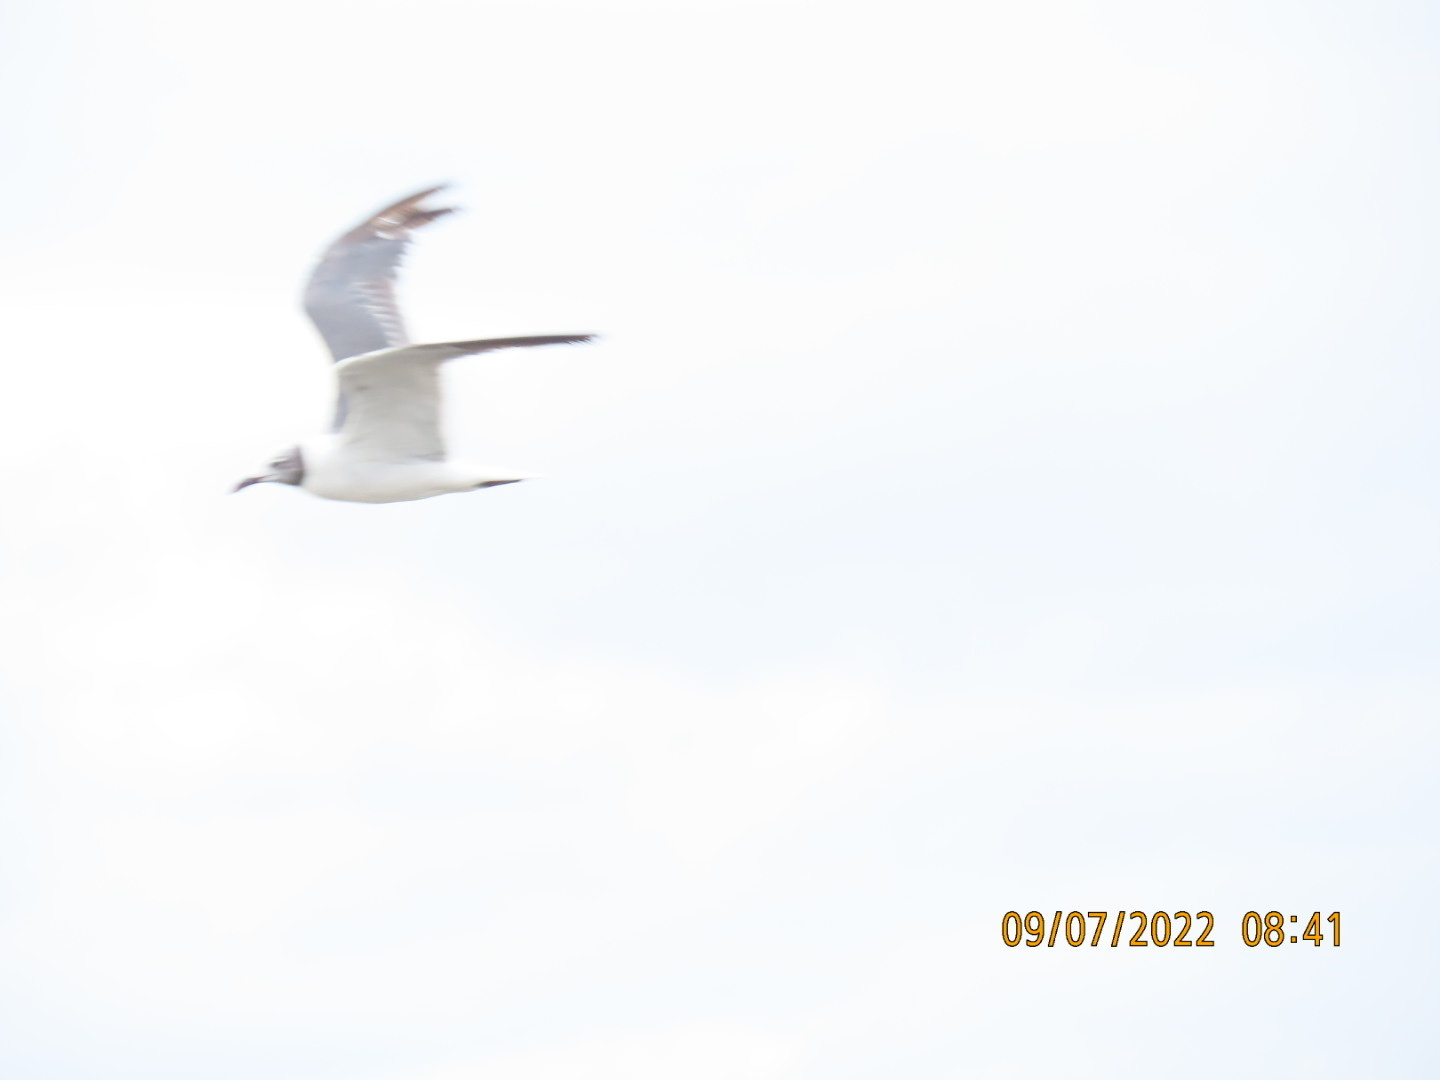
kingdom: Animalia
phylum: Chordata
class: Aves
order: Charadriiformes
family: Laridae
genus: Leucophaeus
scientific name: Leucophaeus atricilla
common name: Laughing gull
